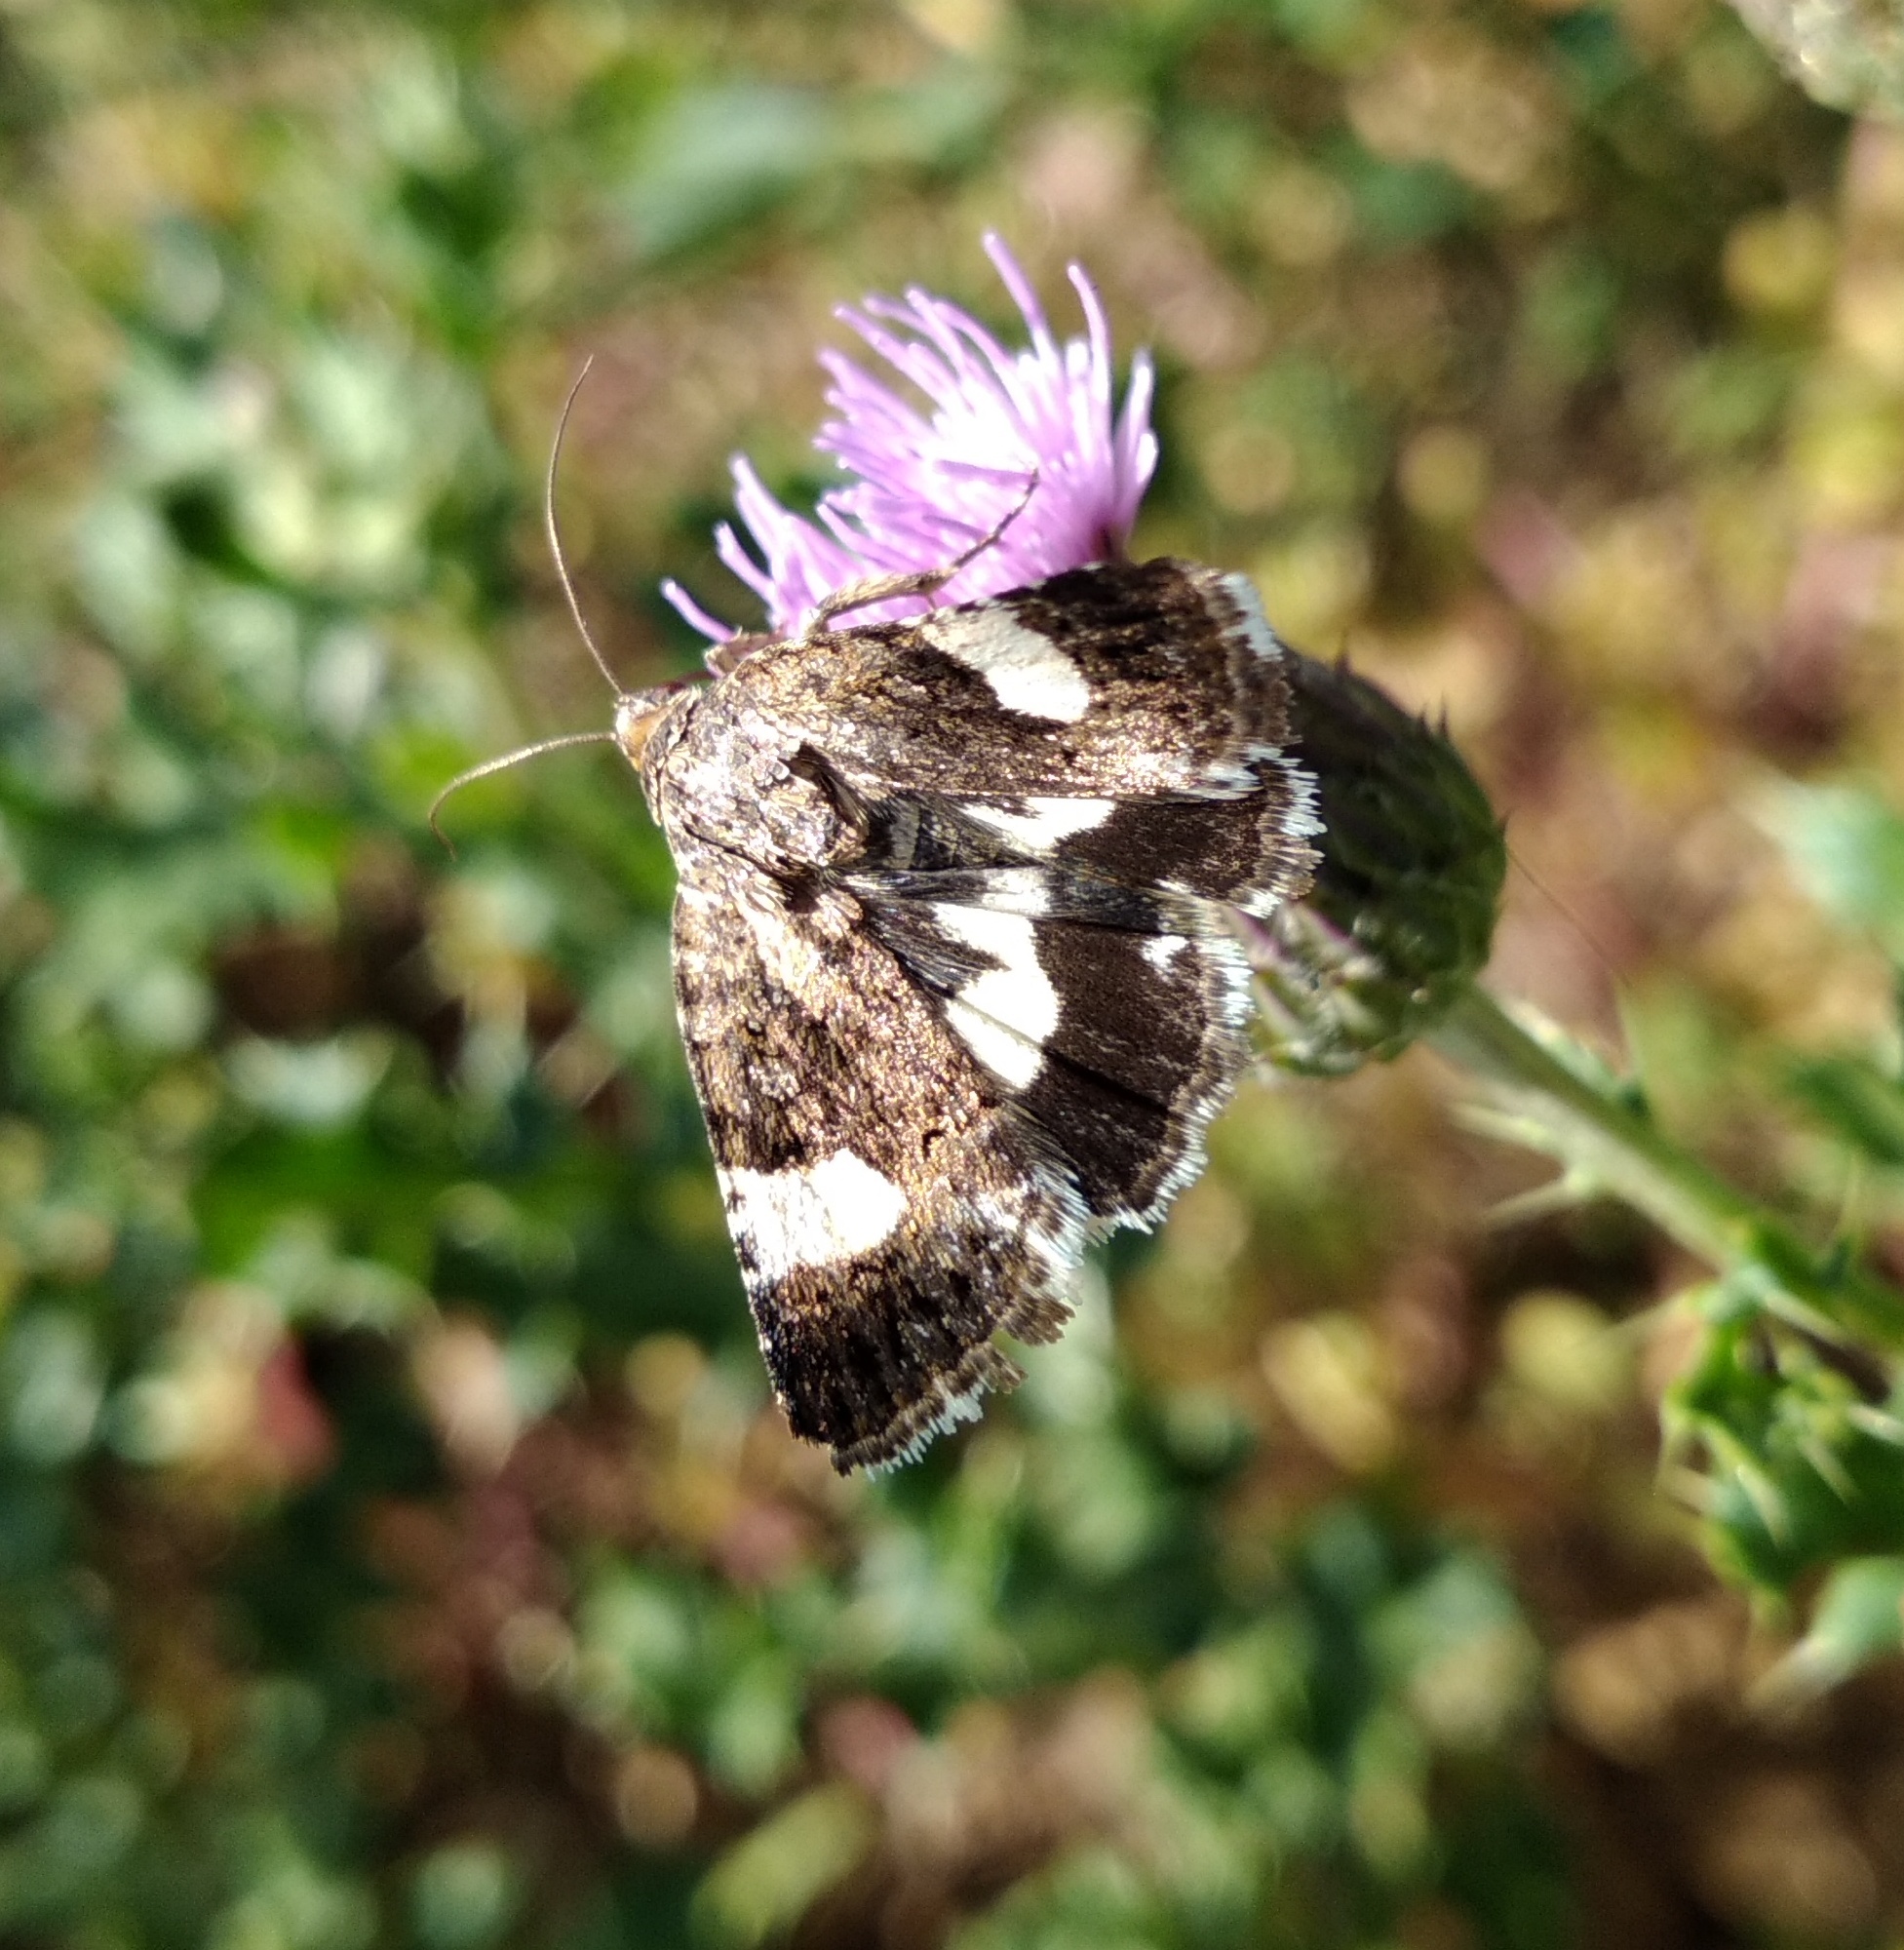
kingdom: Animalia
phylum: Arthropoda
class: Insecta
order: Lepidoptera
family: Erebidae
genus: Tyta
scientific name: Tyta luctuosa
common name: Four-spotted
